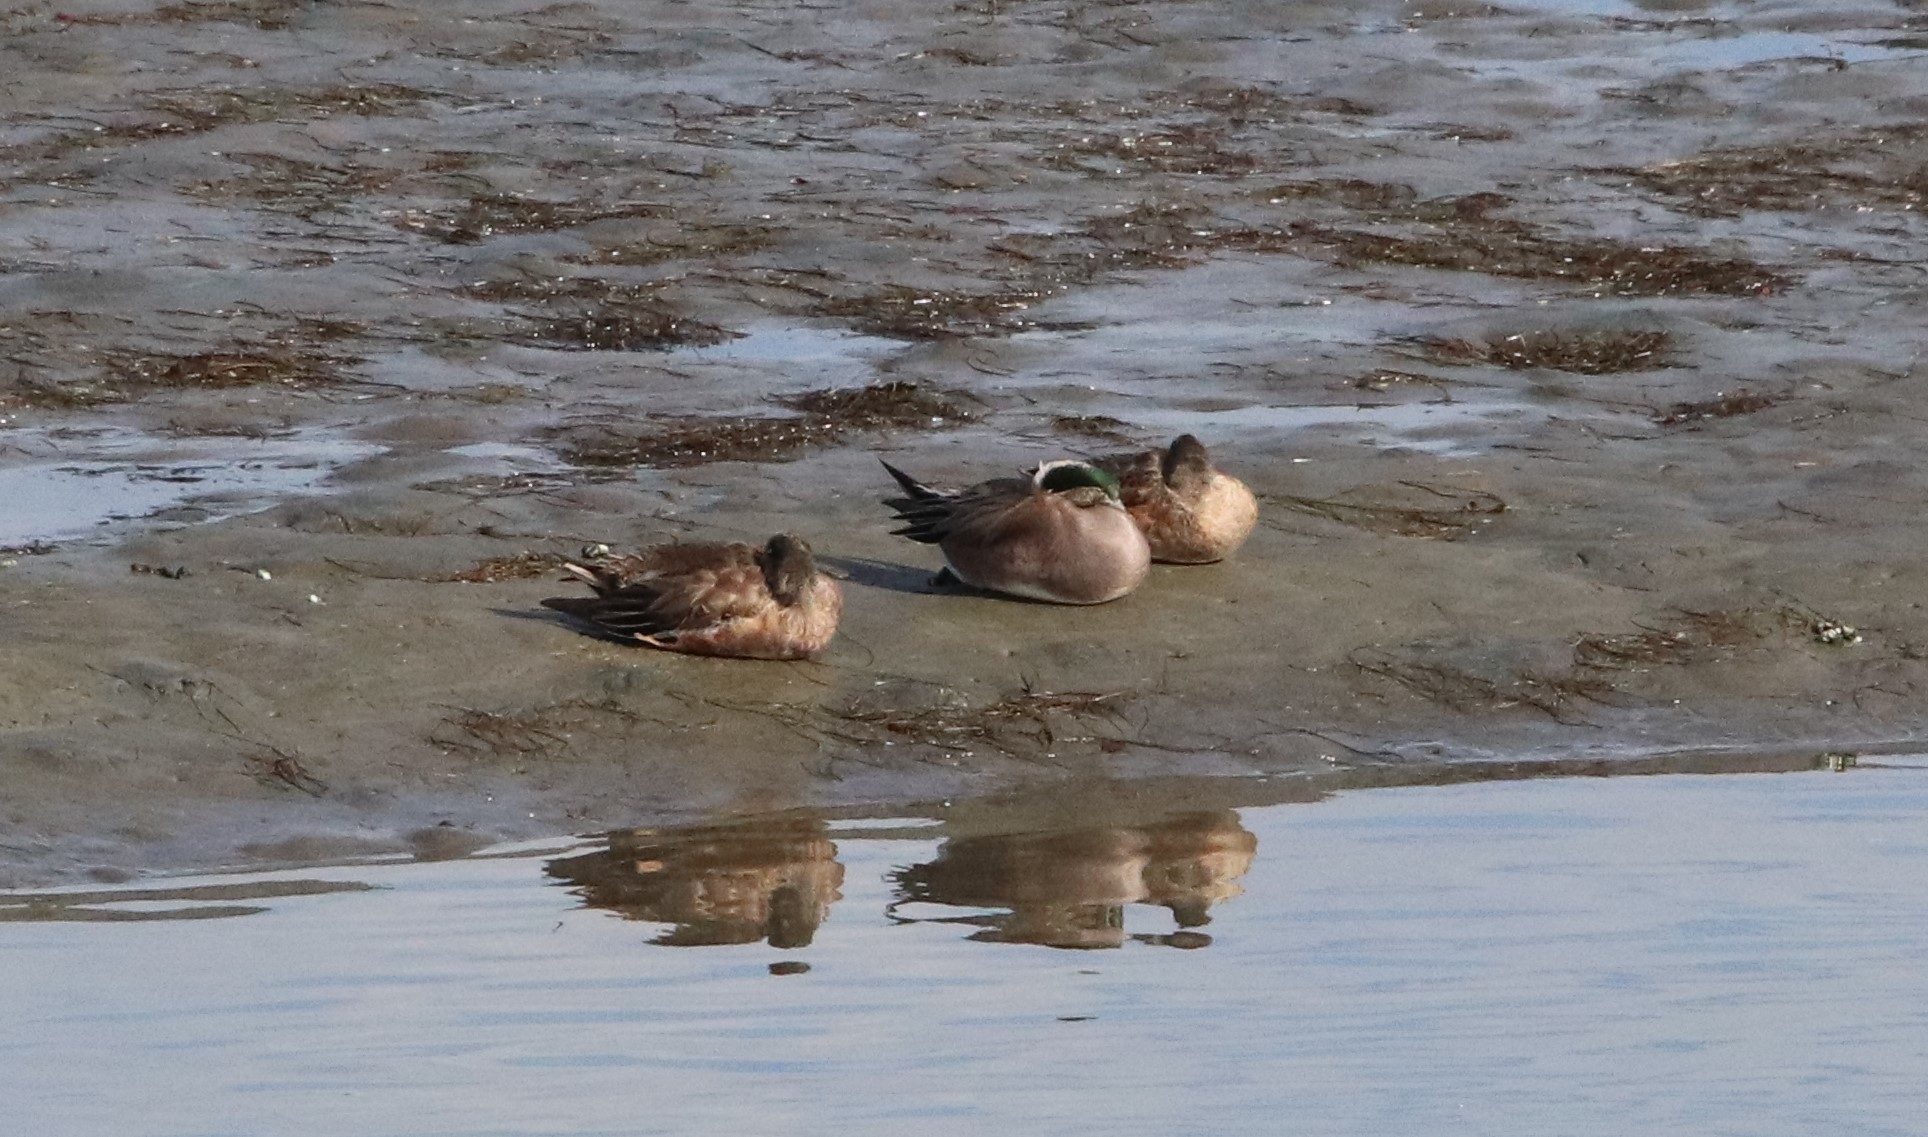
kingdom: Animalia
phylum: Chordata
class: Aves
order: Anseriformes
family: Anatidae
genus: Mareca
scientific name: Mareca americana
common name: American wigeon
